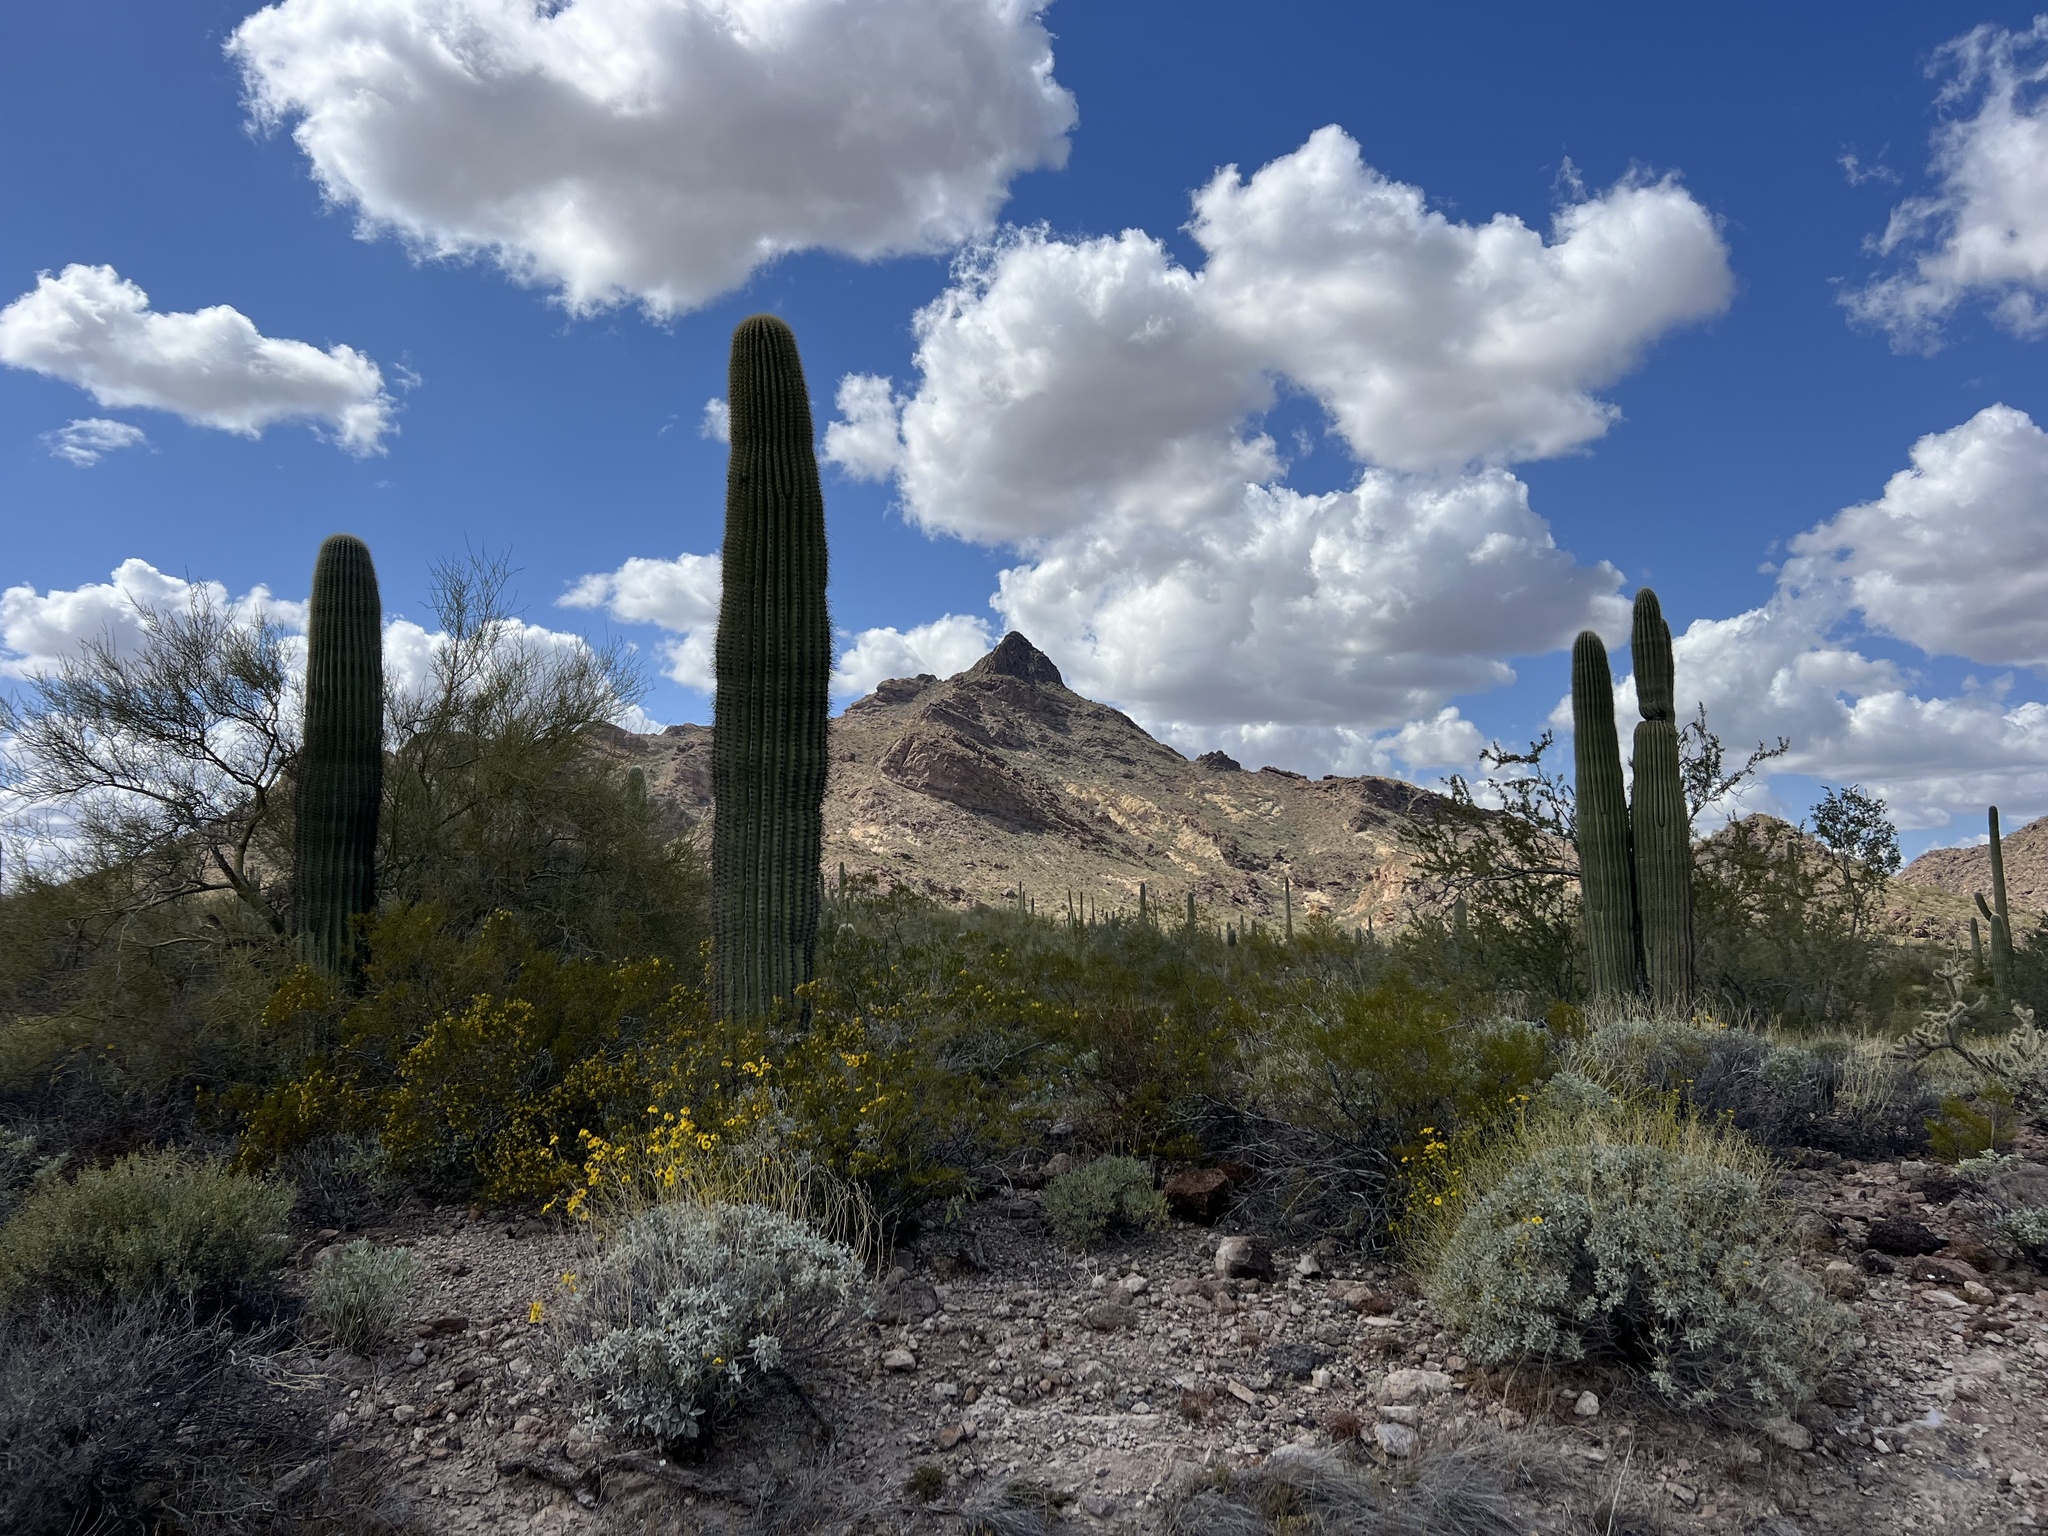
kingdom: Plantae
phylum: Tracheophyta
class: Magnoliopsida
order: Caryophyllales
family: Cactaceae
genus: Carnegiea
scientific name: Carnegiea gigantea
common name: Saguaro
